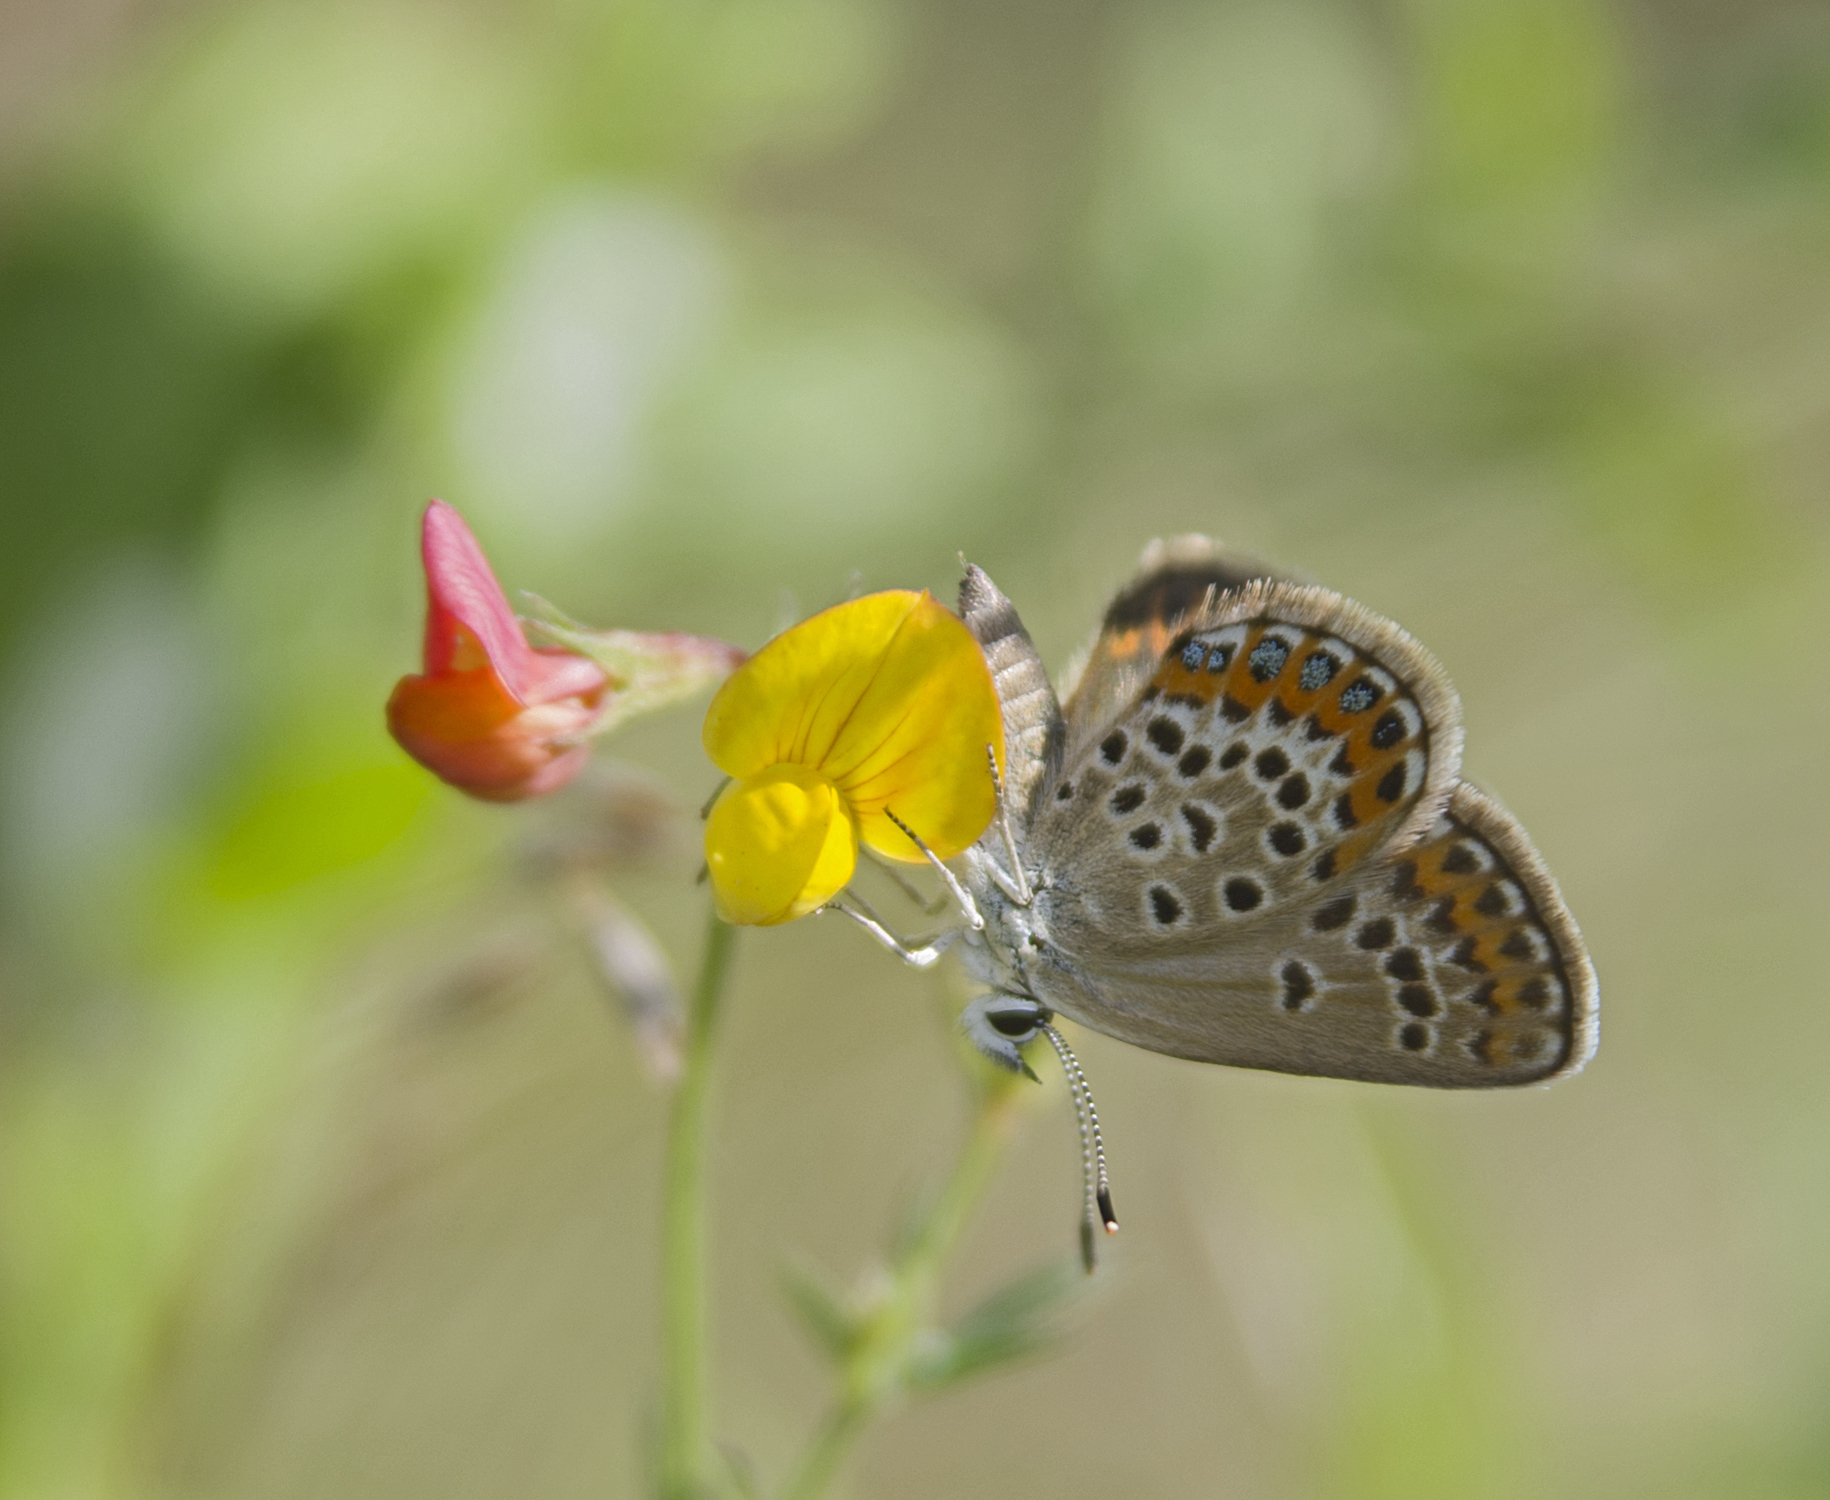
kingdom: Animalia
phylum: Arthropoda
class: Insecta
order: Lepidoptera
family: Lycaenidae
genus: Plebejus
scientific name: Plebejus argus
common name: Silver-studded blue
